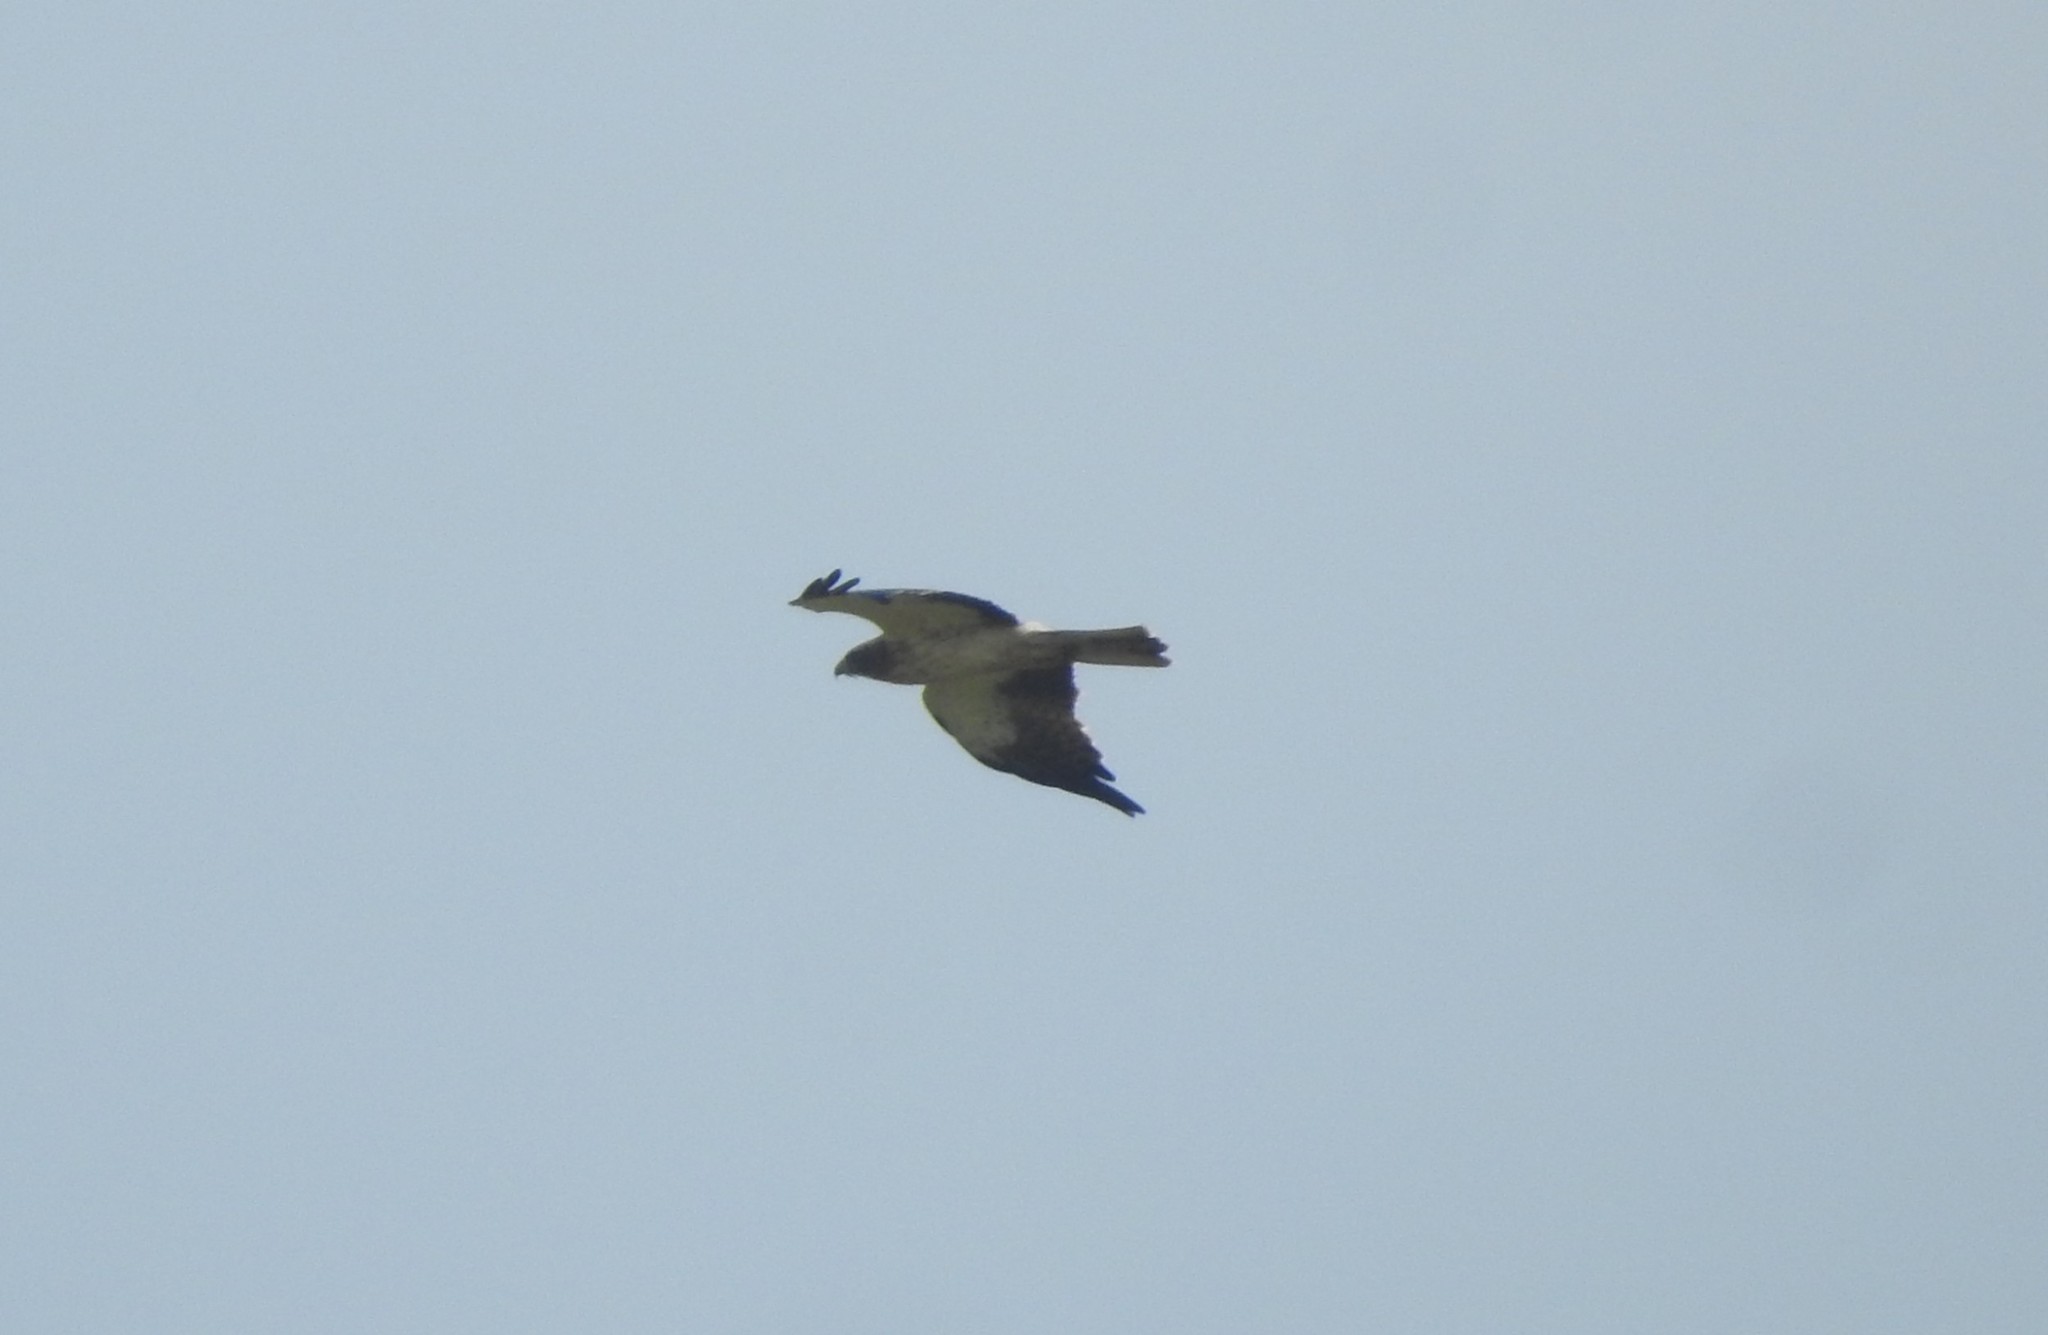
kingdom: Animalia
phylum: Chordata
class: Aves
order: Accipitriformes
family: Accipitridae
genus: Hieraaetus
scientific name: Hieraaetus pennatus
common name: Booted eagle
